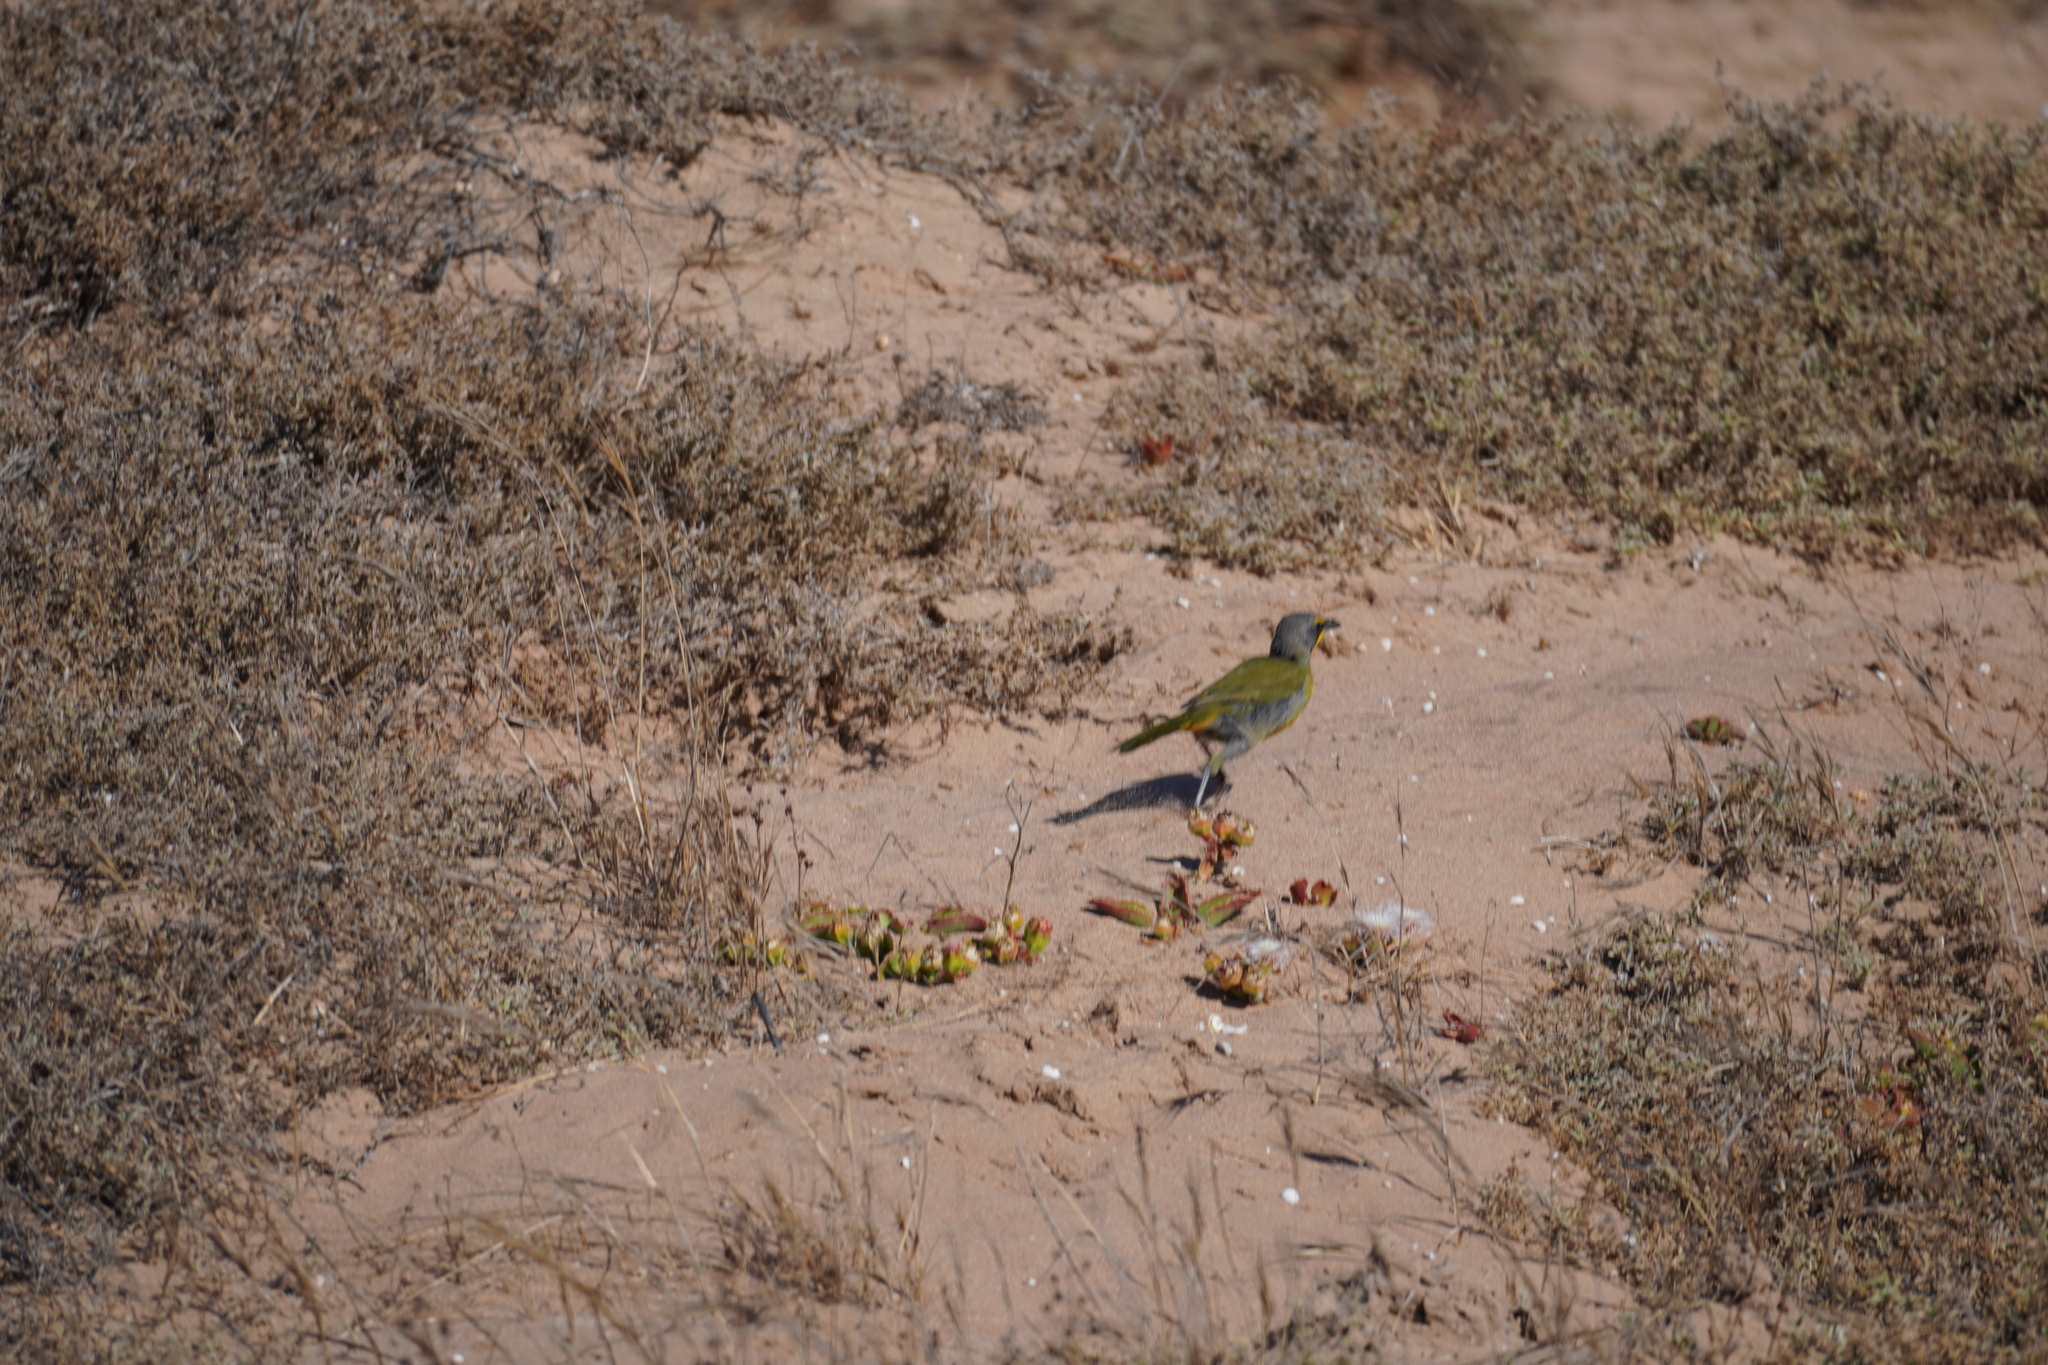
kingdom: Animalia
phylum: Chordata
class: Aves
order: Passeriformes
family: Malaconotidae
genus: Telophorus
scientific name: Telophorus zeylonus
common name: Bokmakierie
